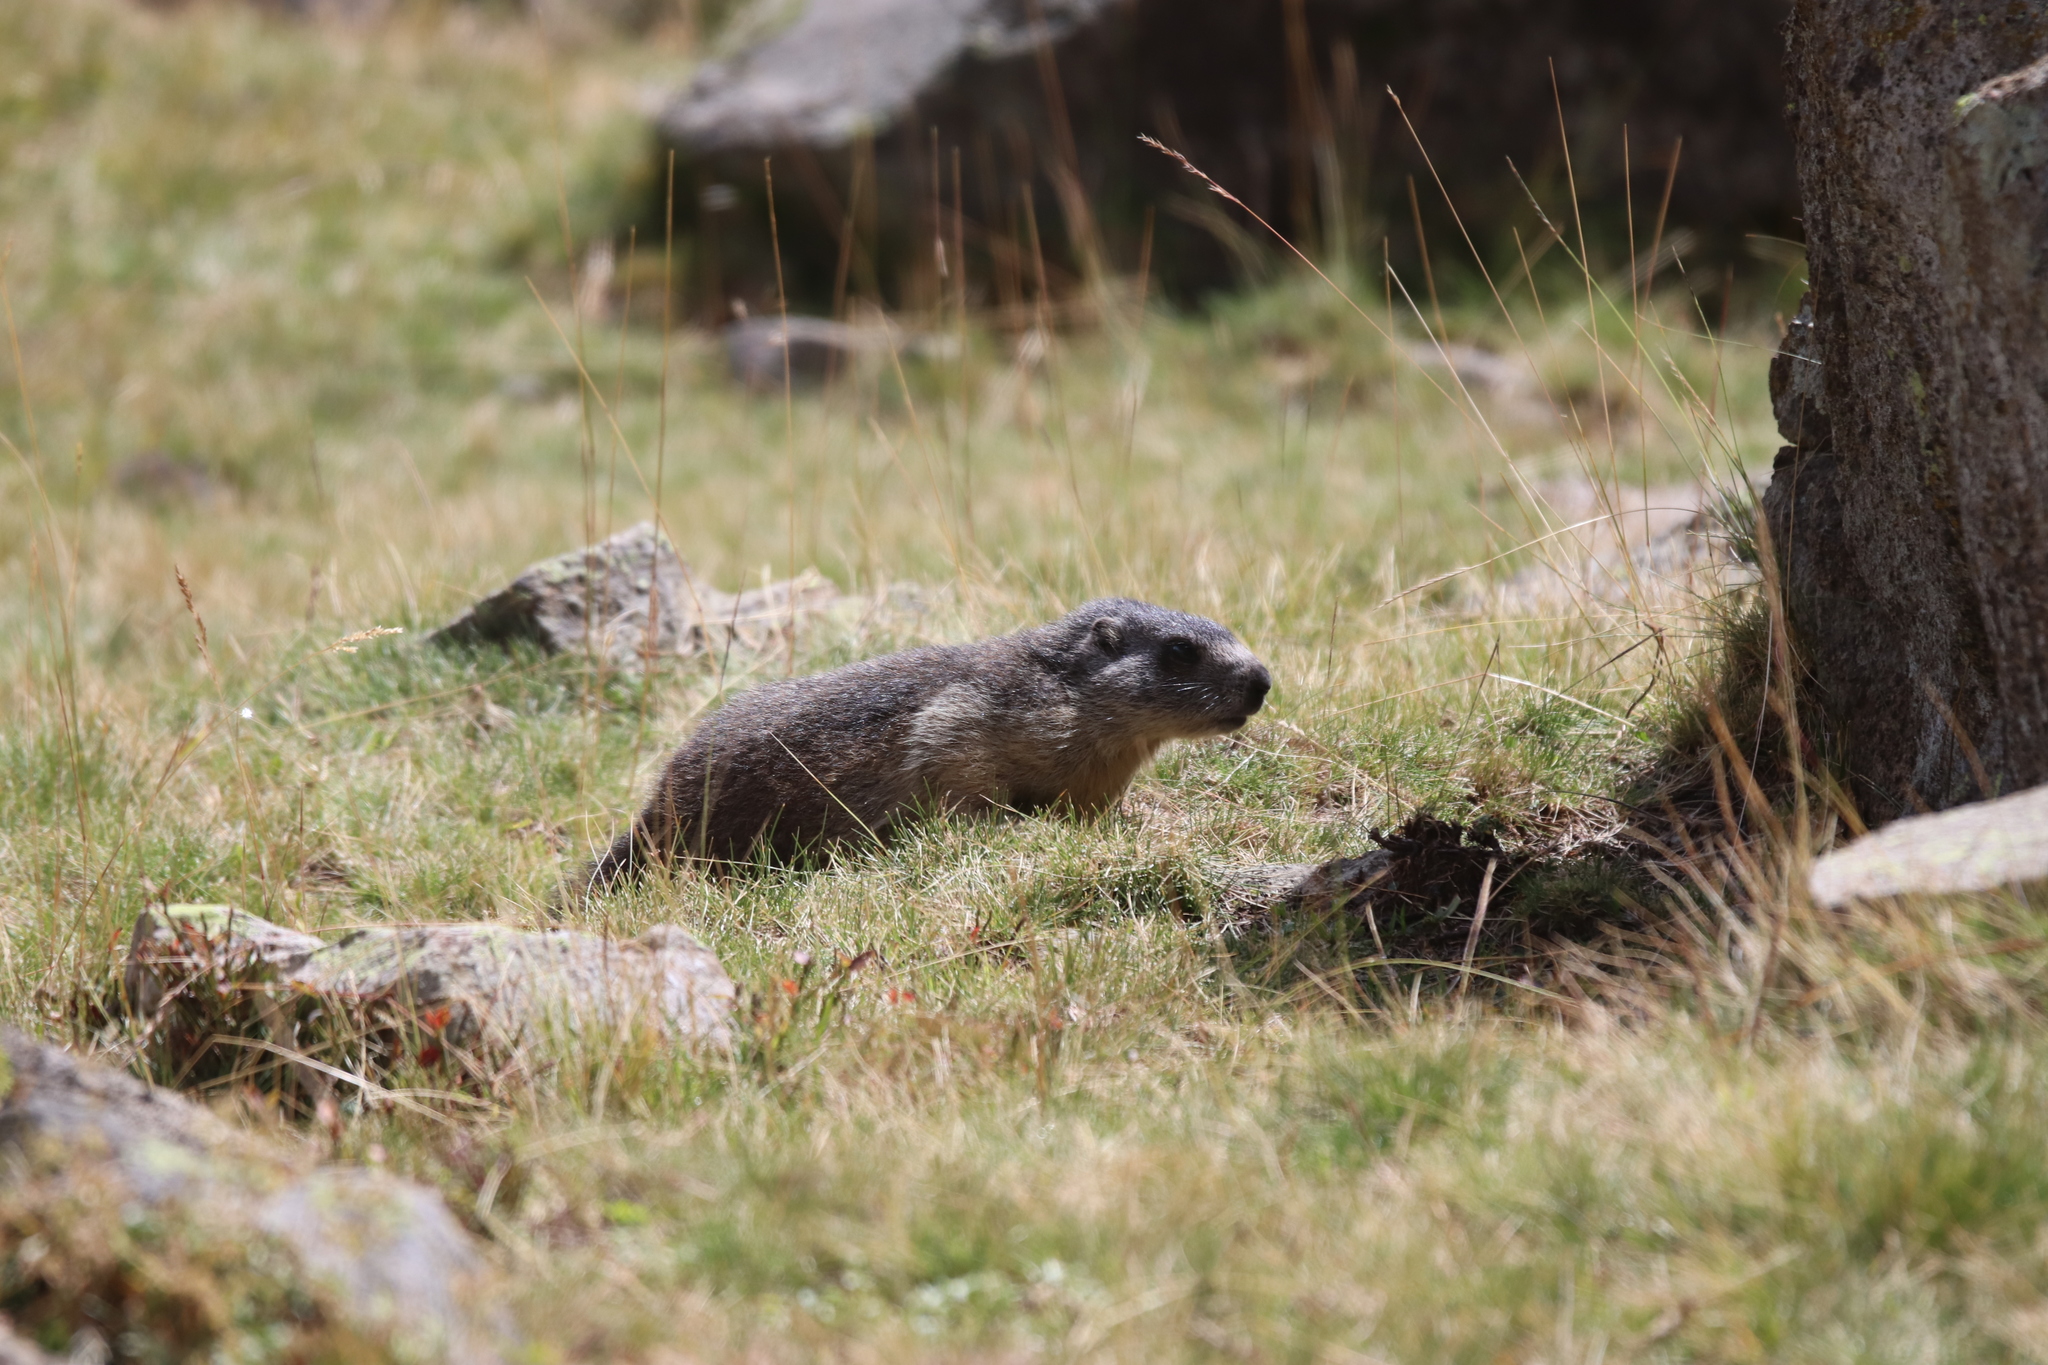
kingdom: Animalia
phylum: Chordata
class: Mammalia
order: Rodentia
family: Sciuridae
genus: Marmota
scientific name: Marmota marmota
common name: Alpine marmot
